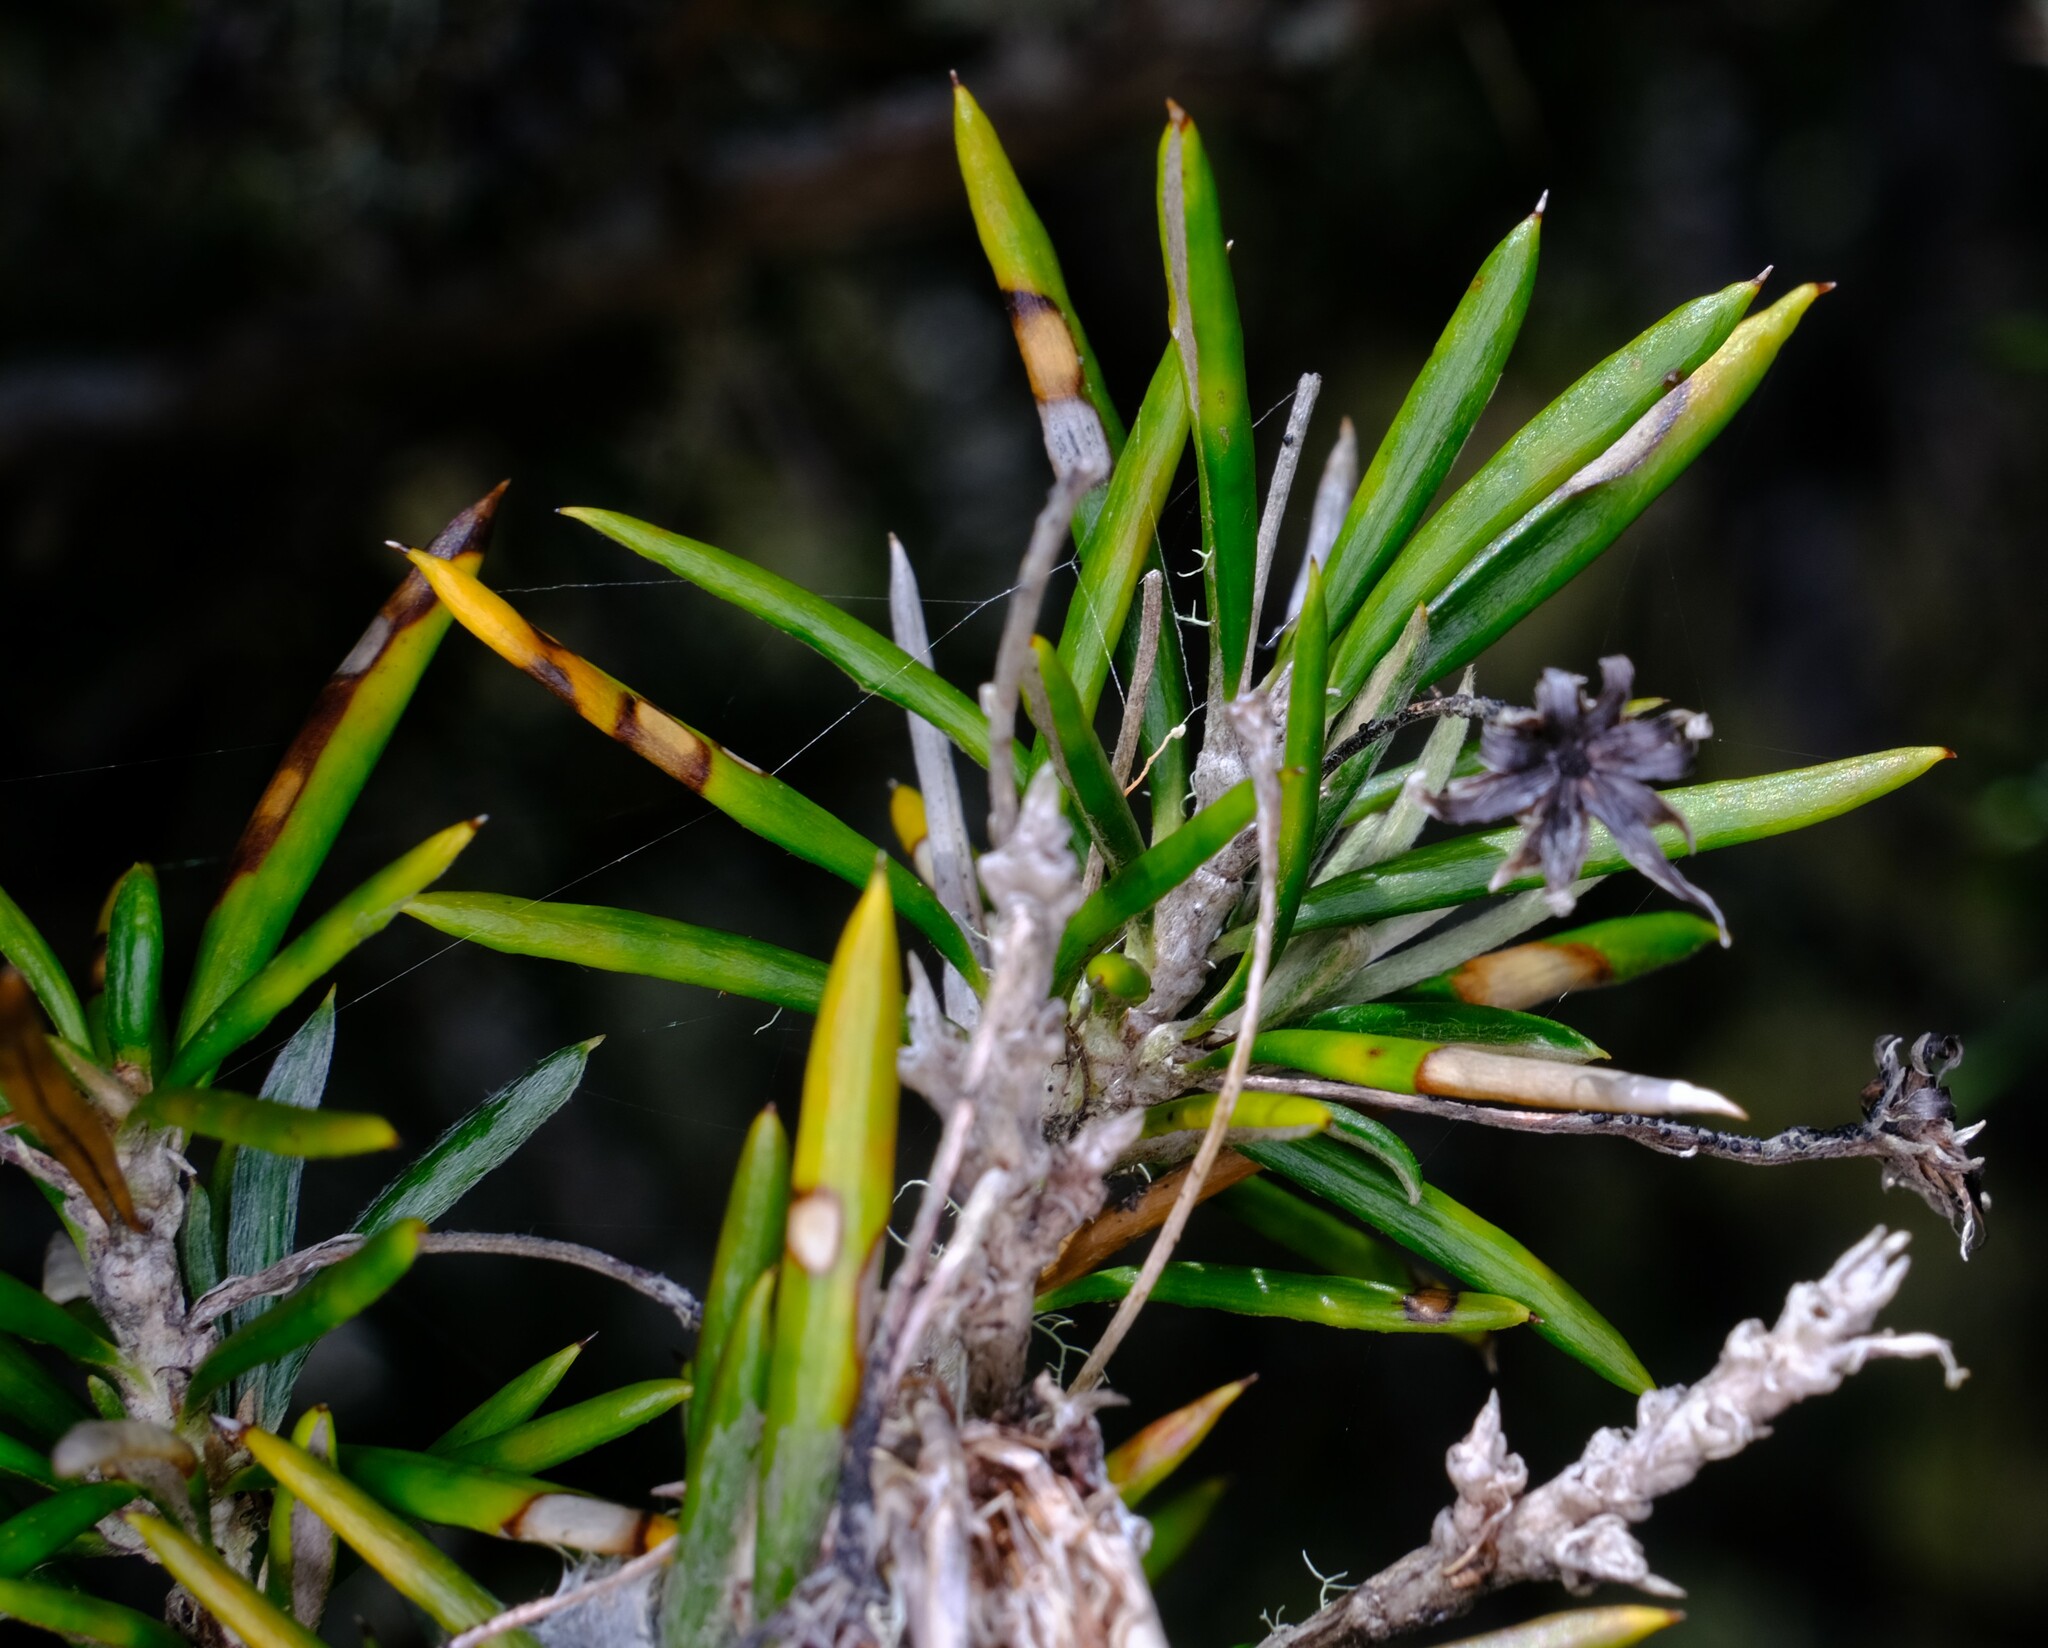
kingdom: Plantae
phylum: Tracheophyta
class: Magnoliopsida
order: Asterales
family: Asteraceae
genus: Olearia
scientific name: Olearia pinifolia
